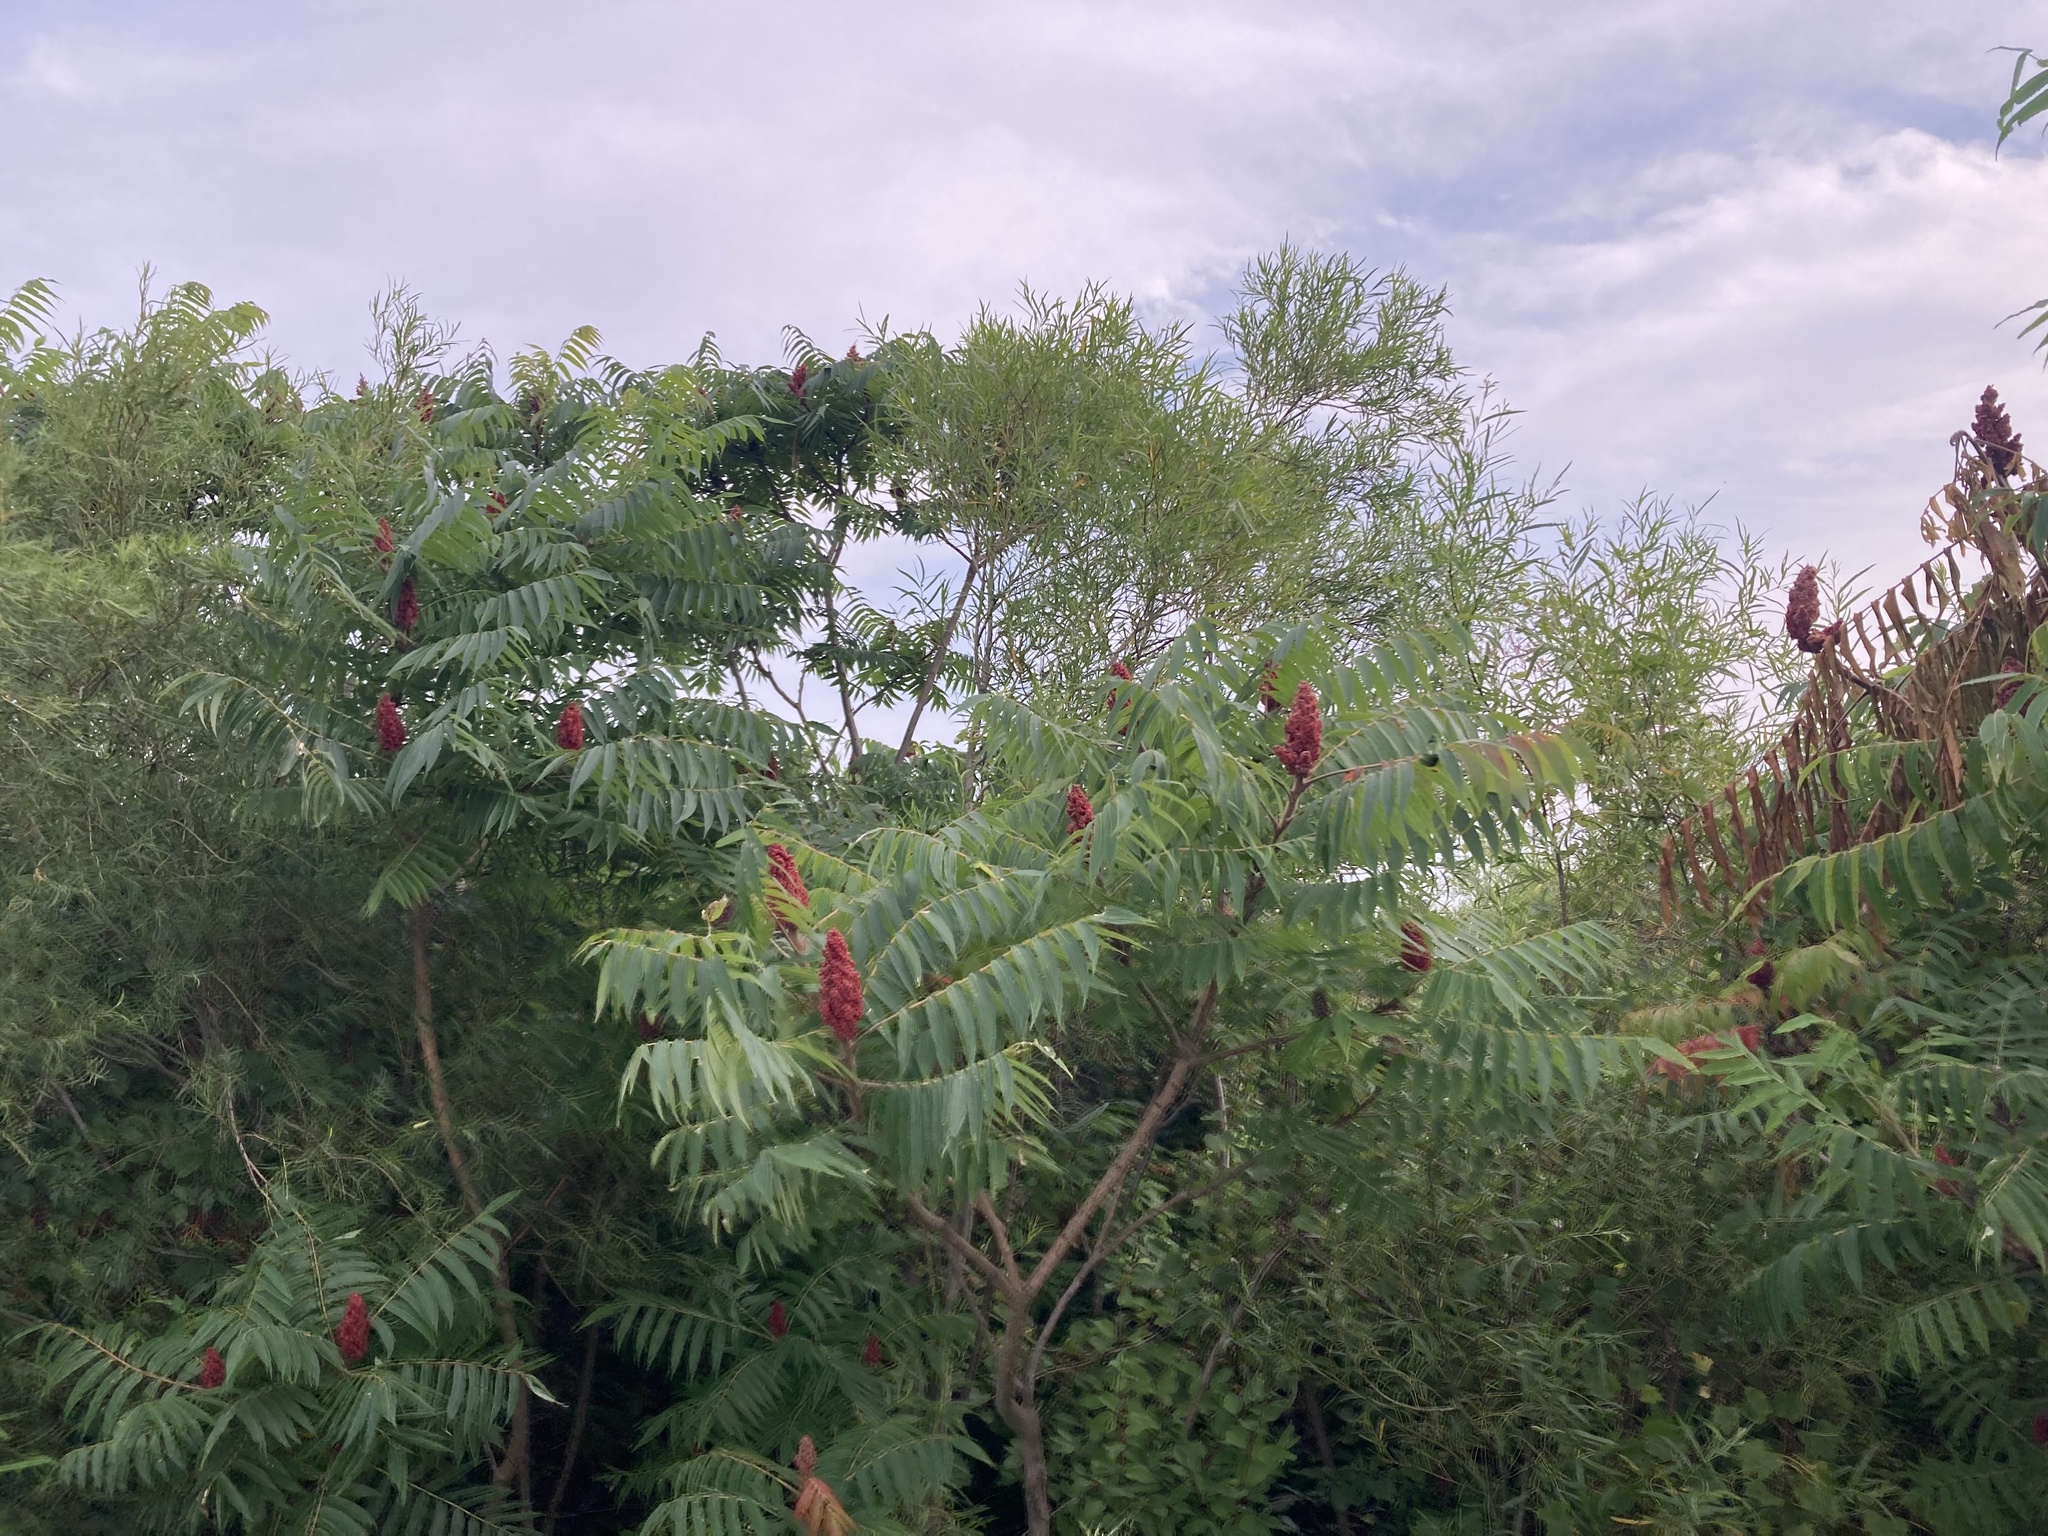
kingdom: Plantae
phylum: Tracheophyta
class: Magnoliopsida
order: Sapindales
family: Anacardiaceae
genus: Rhus
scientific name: Rhus typhina
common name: Staghorn sumac
